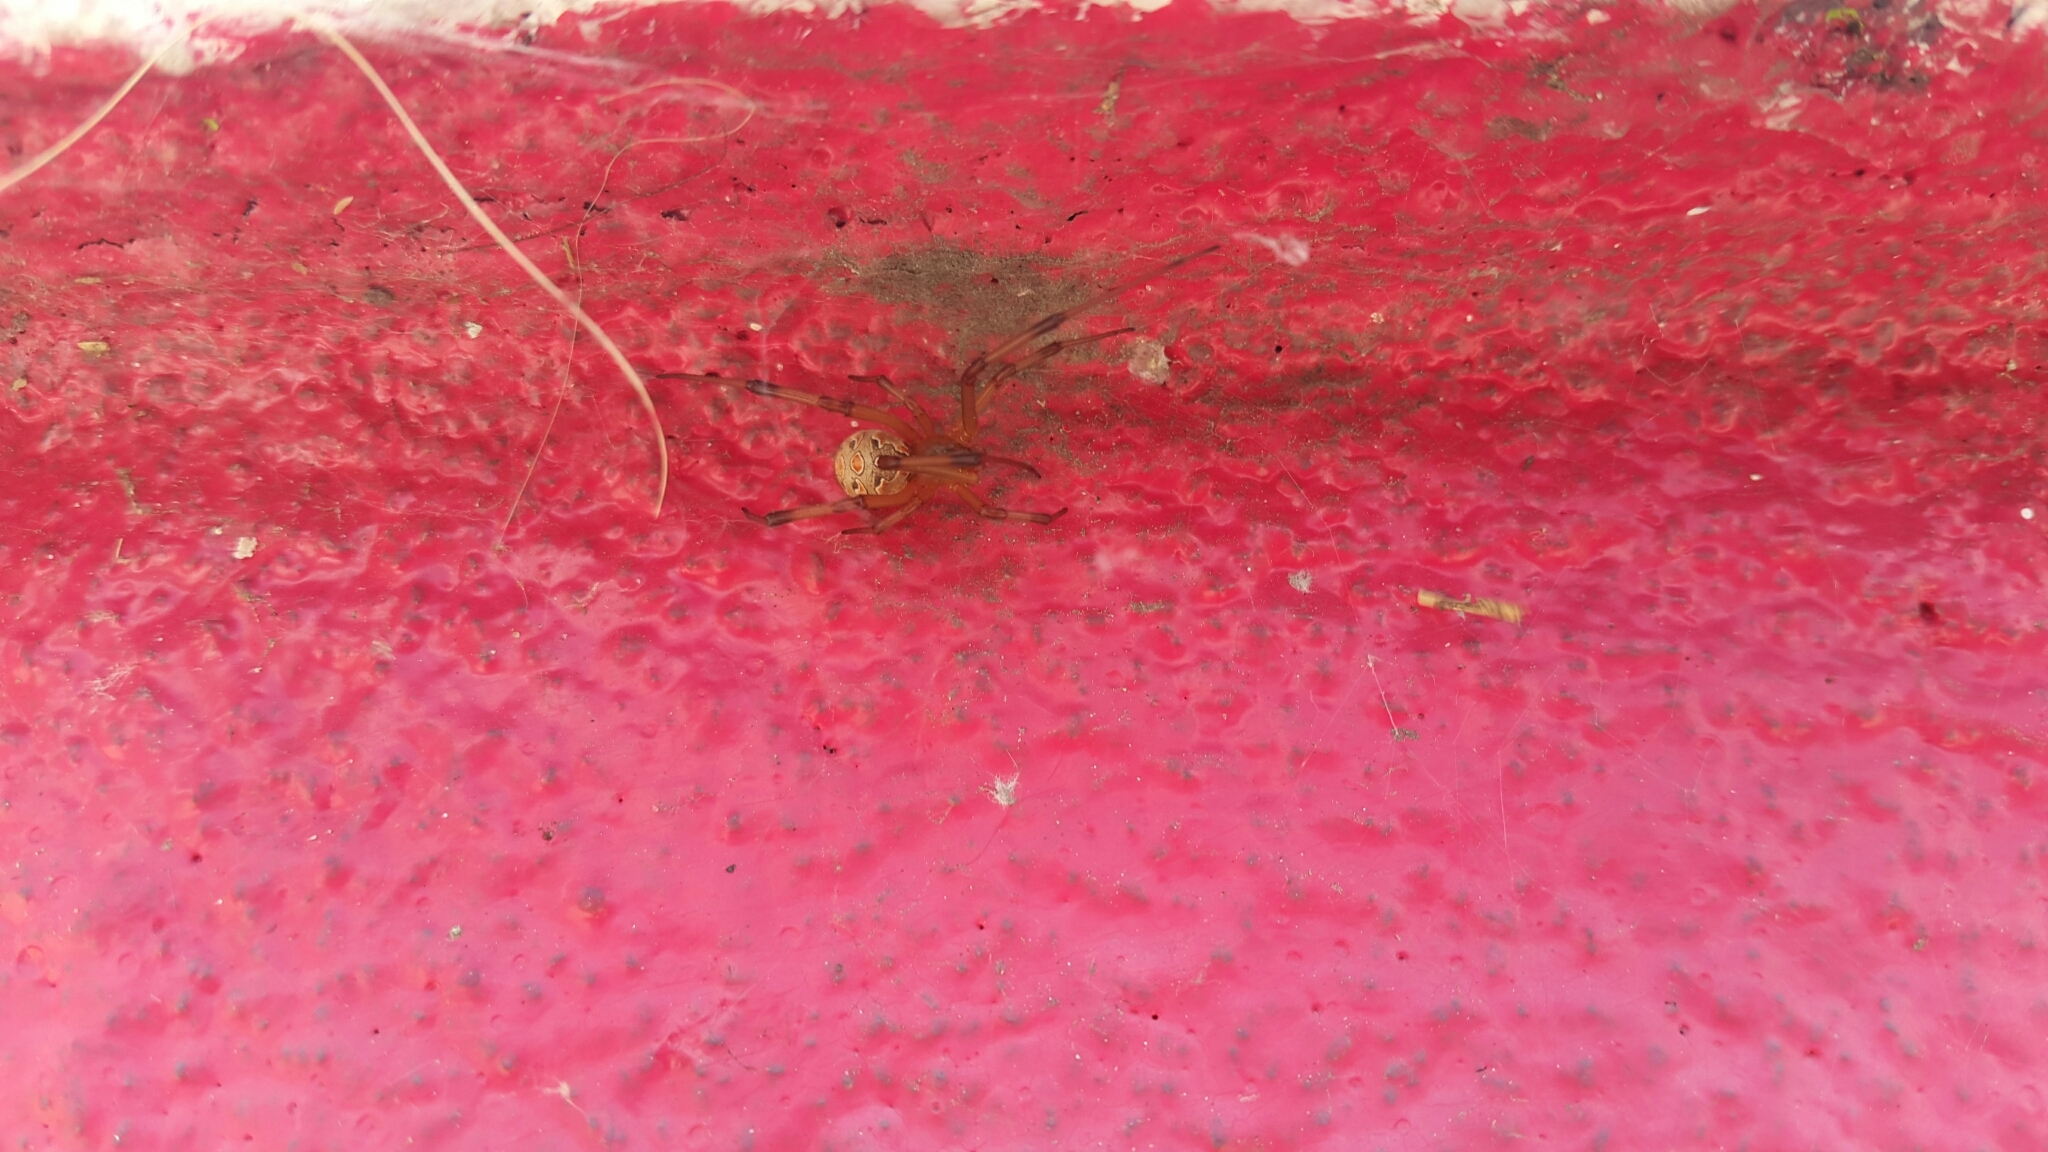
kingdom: Animalia
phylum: Arthropoda
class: Arachnida
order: Araneae
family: Theridiidae
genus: Latrodectus
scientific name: Latrodectus geometricus
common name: Brown widow spider
